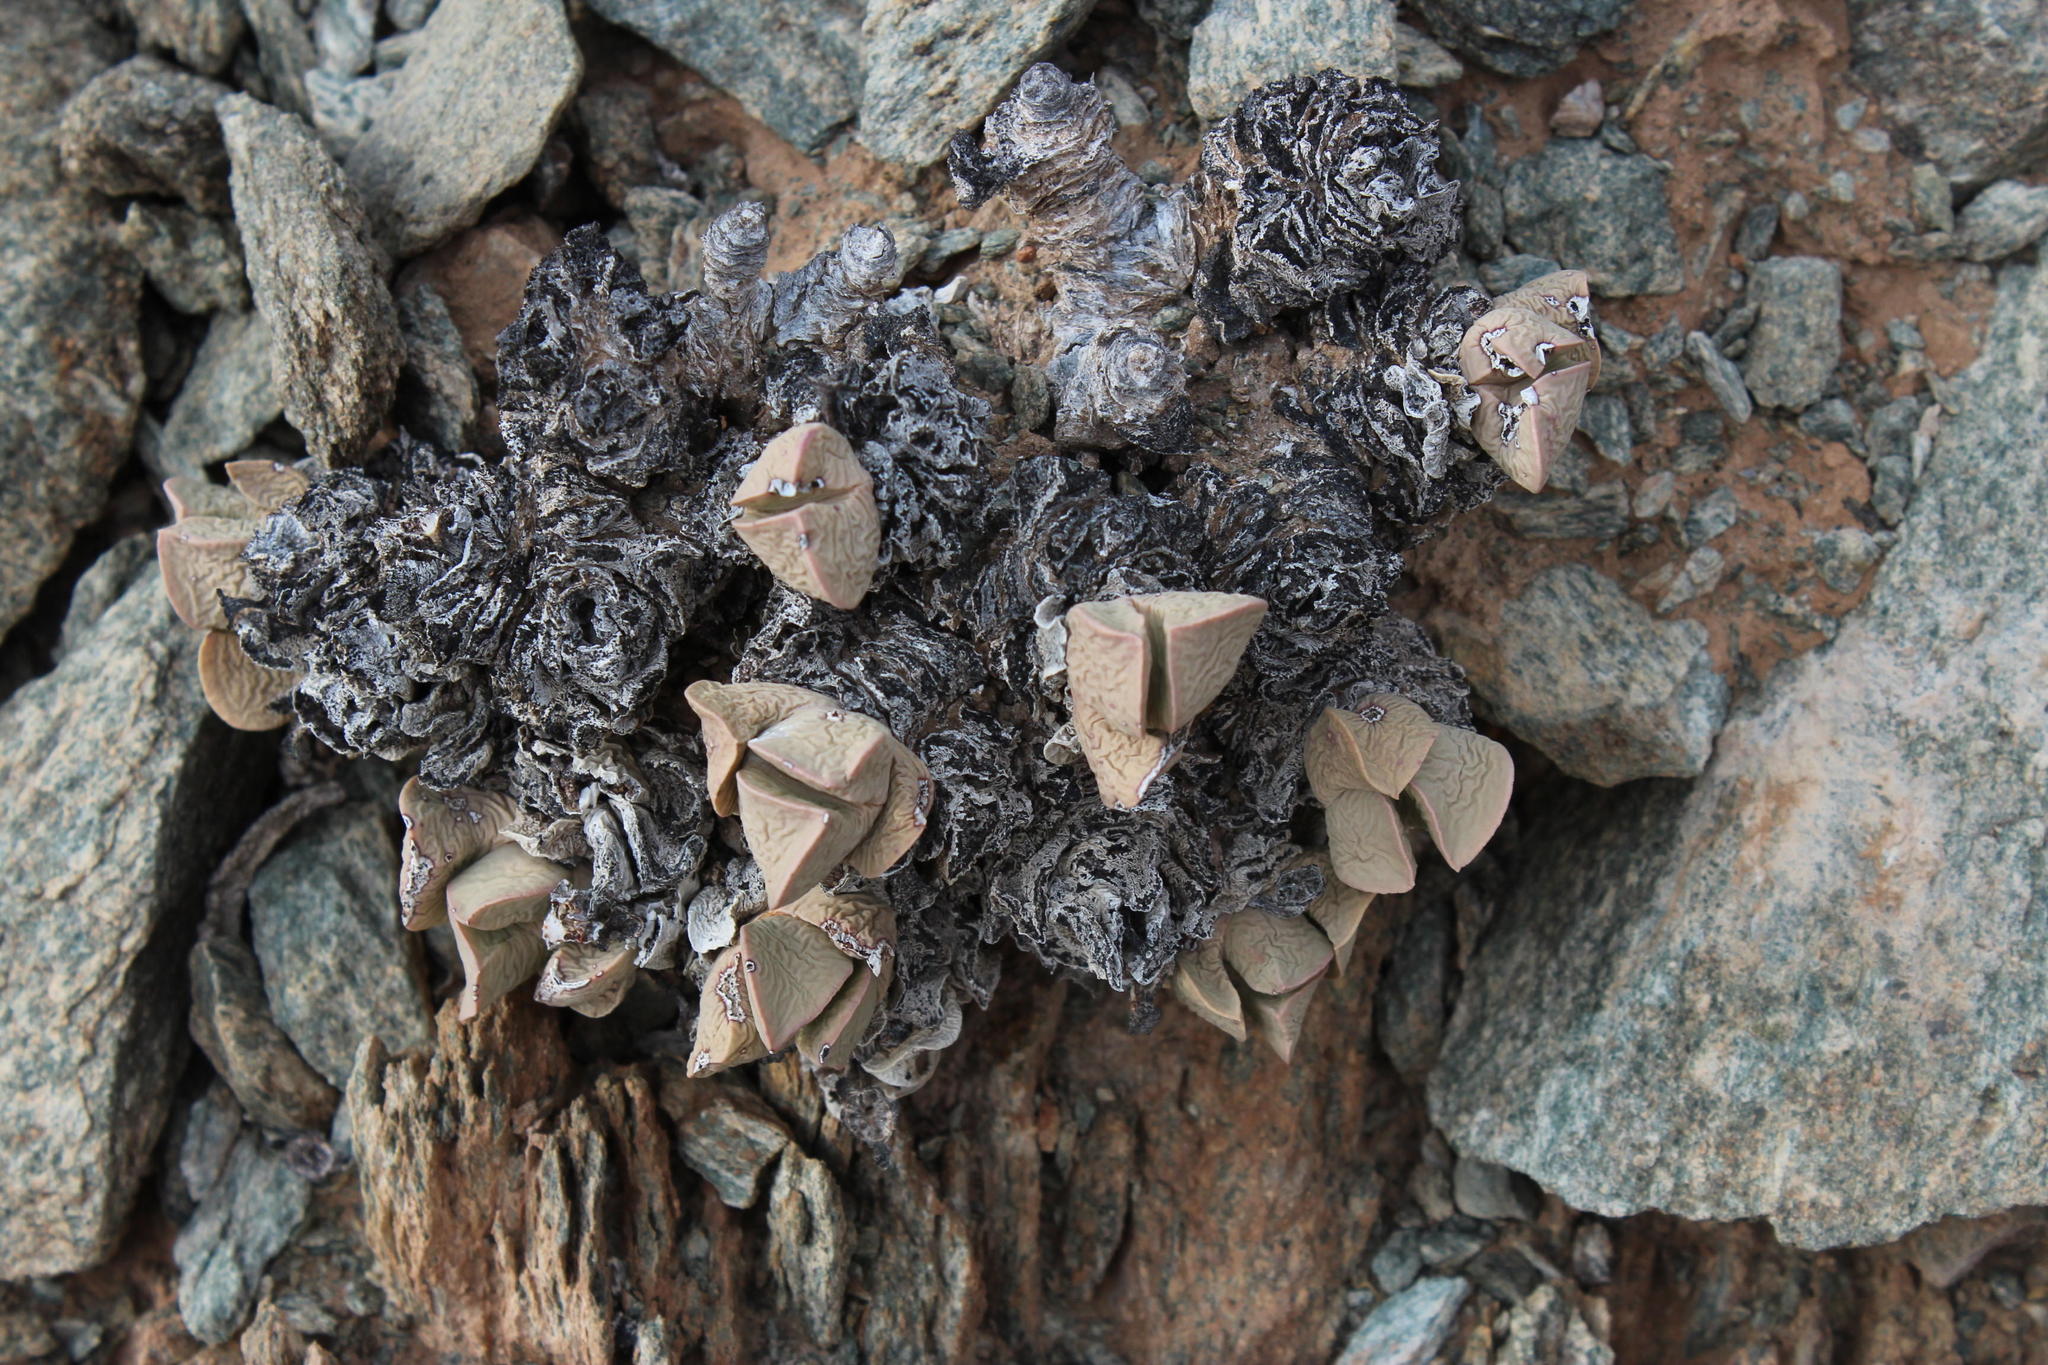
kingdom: Plantae
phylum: Tracheophyta
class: Magnoliopsida
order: Caryophyllales
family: Aizoaceae
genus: Schwantesia
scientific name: Schwantesia herrei
